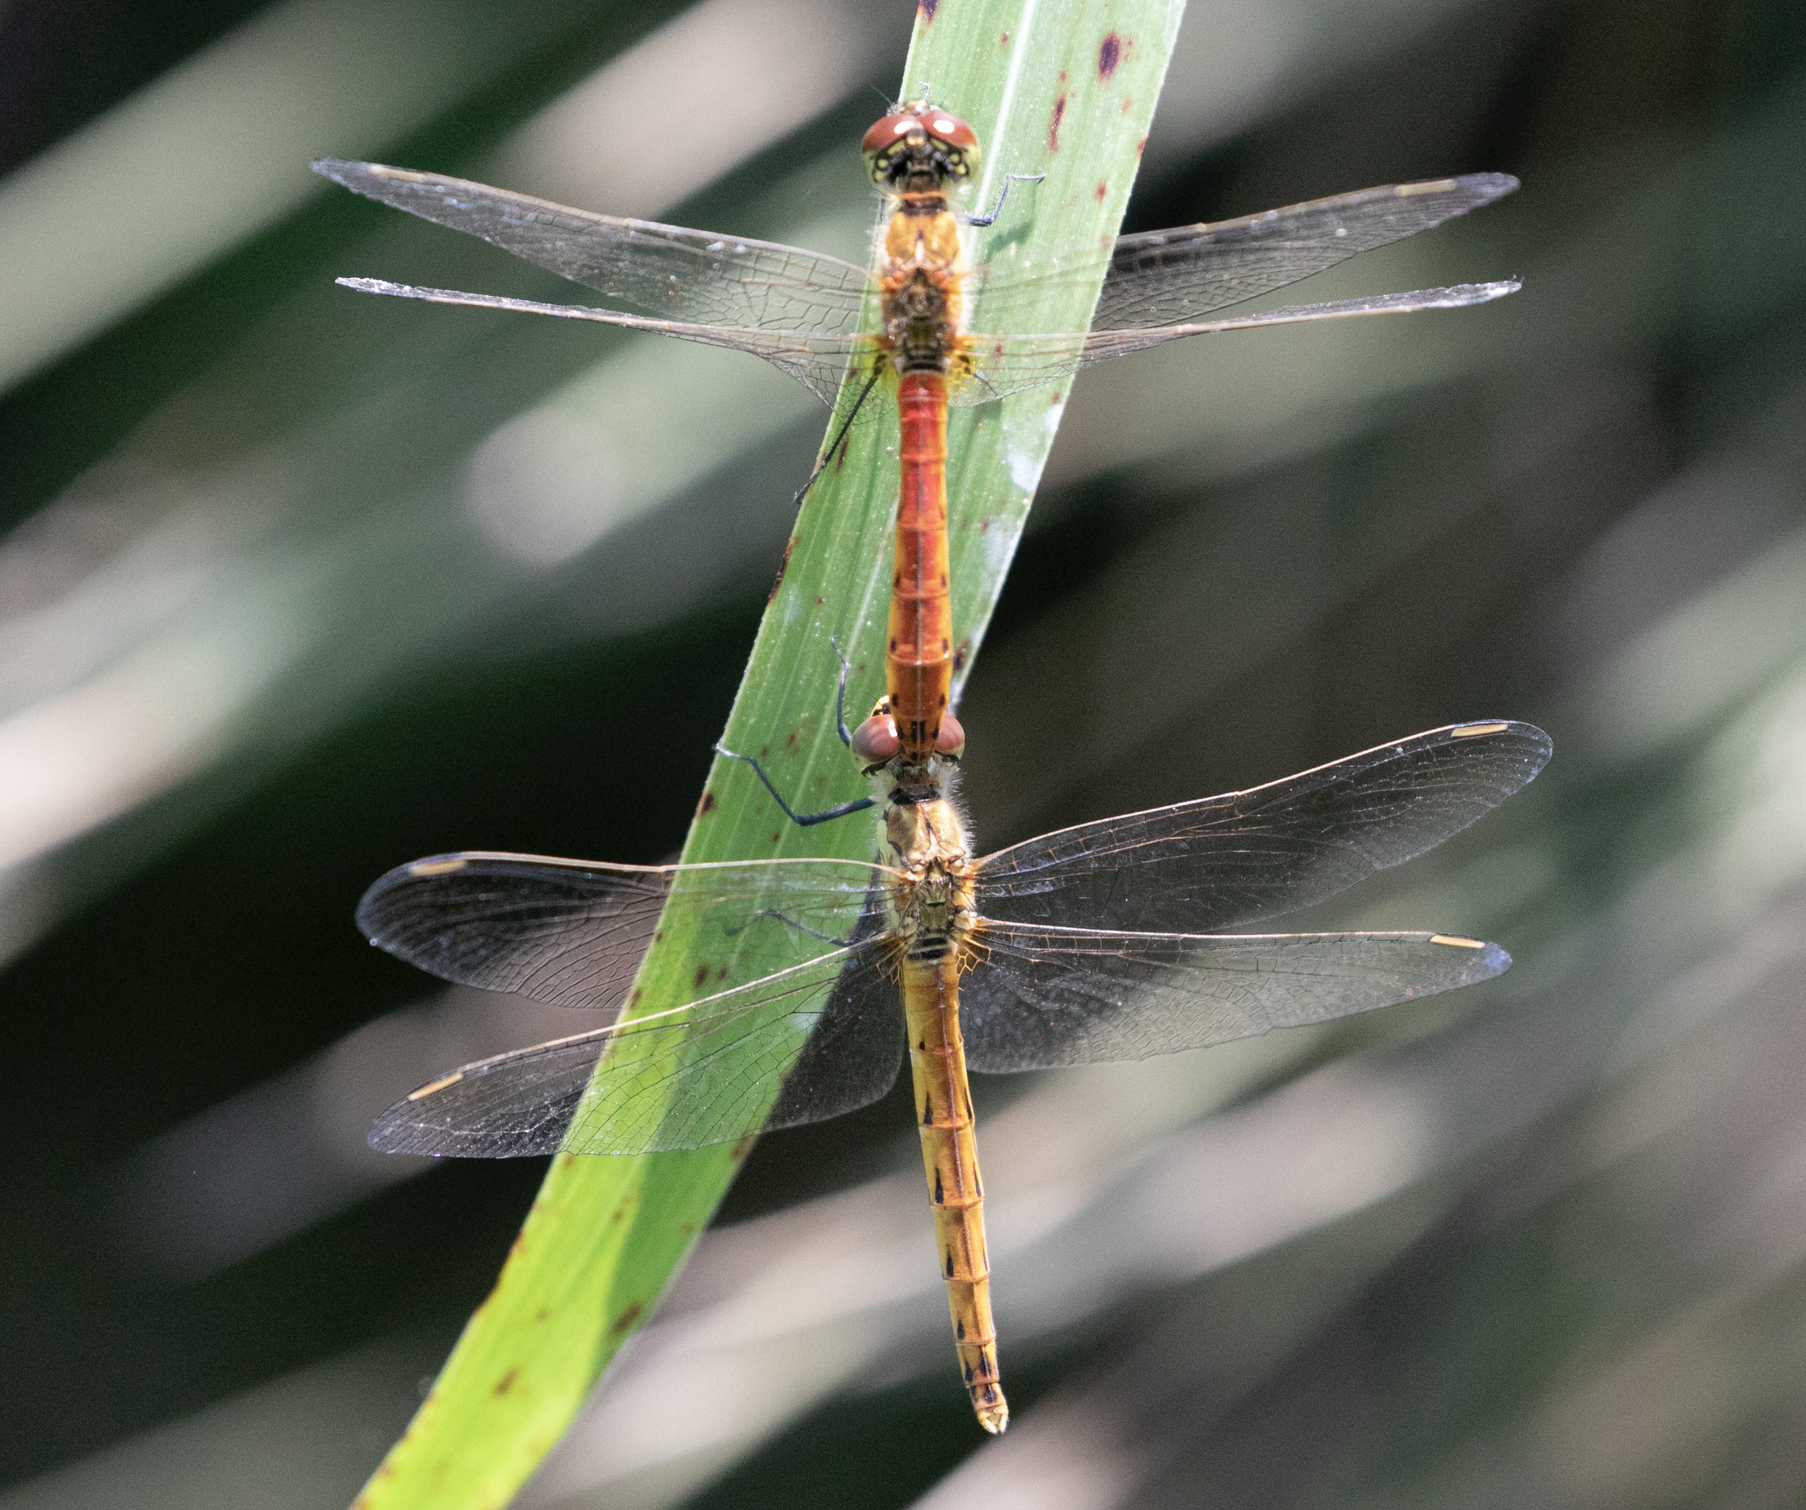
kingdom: Animalia
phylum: Arthropoda
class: Insecta
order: Odonata
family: Libellulidae
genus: Sympetrum
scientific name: Sympetrum depressiusculum
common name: Spotted darter
